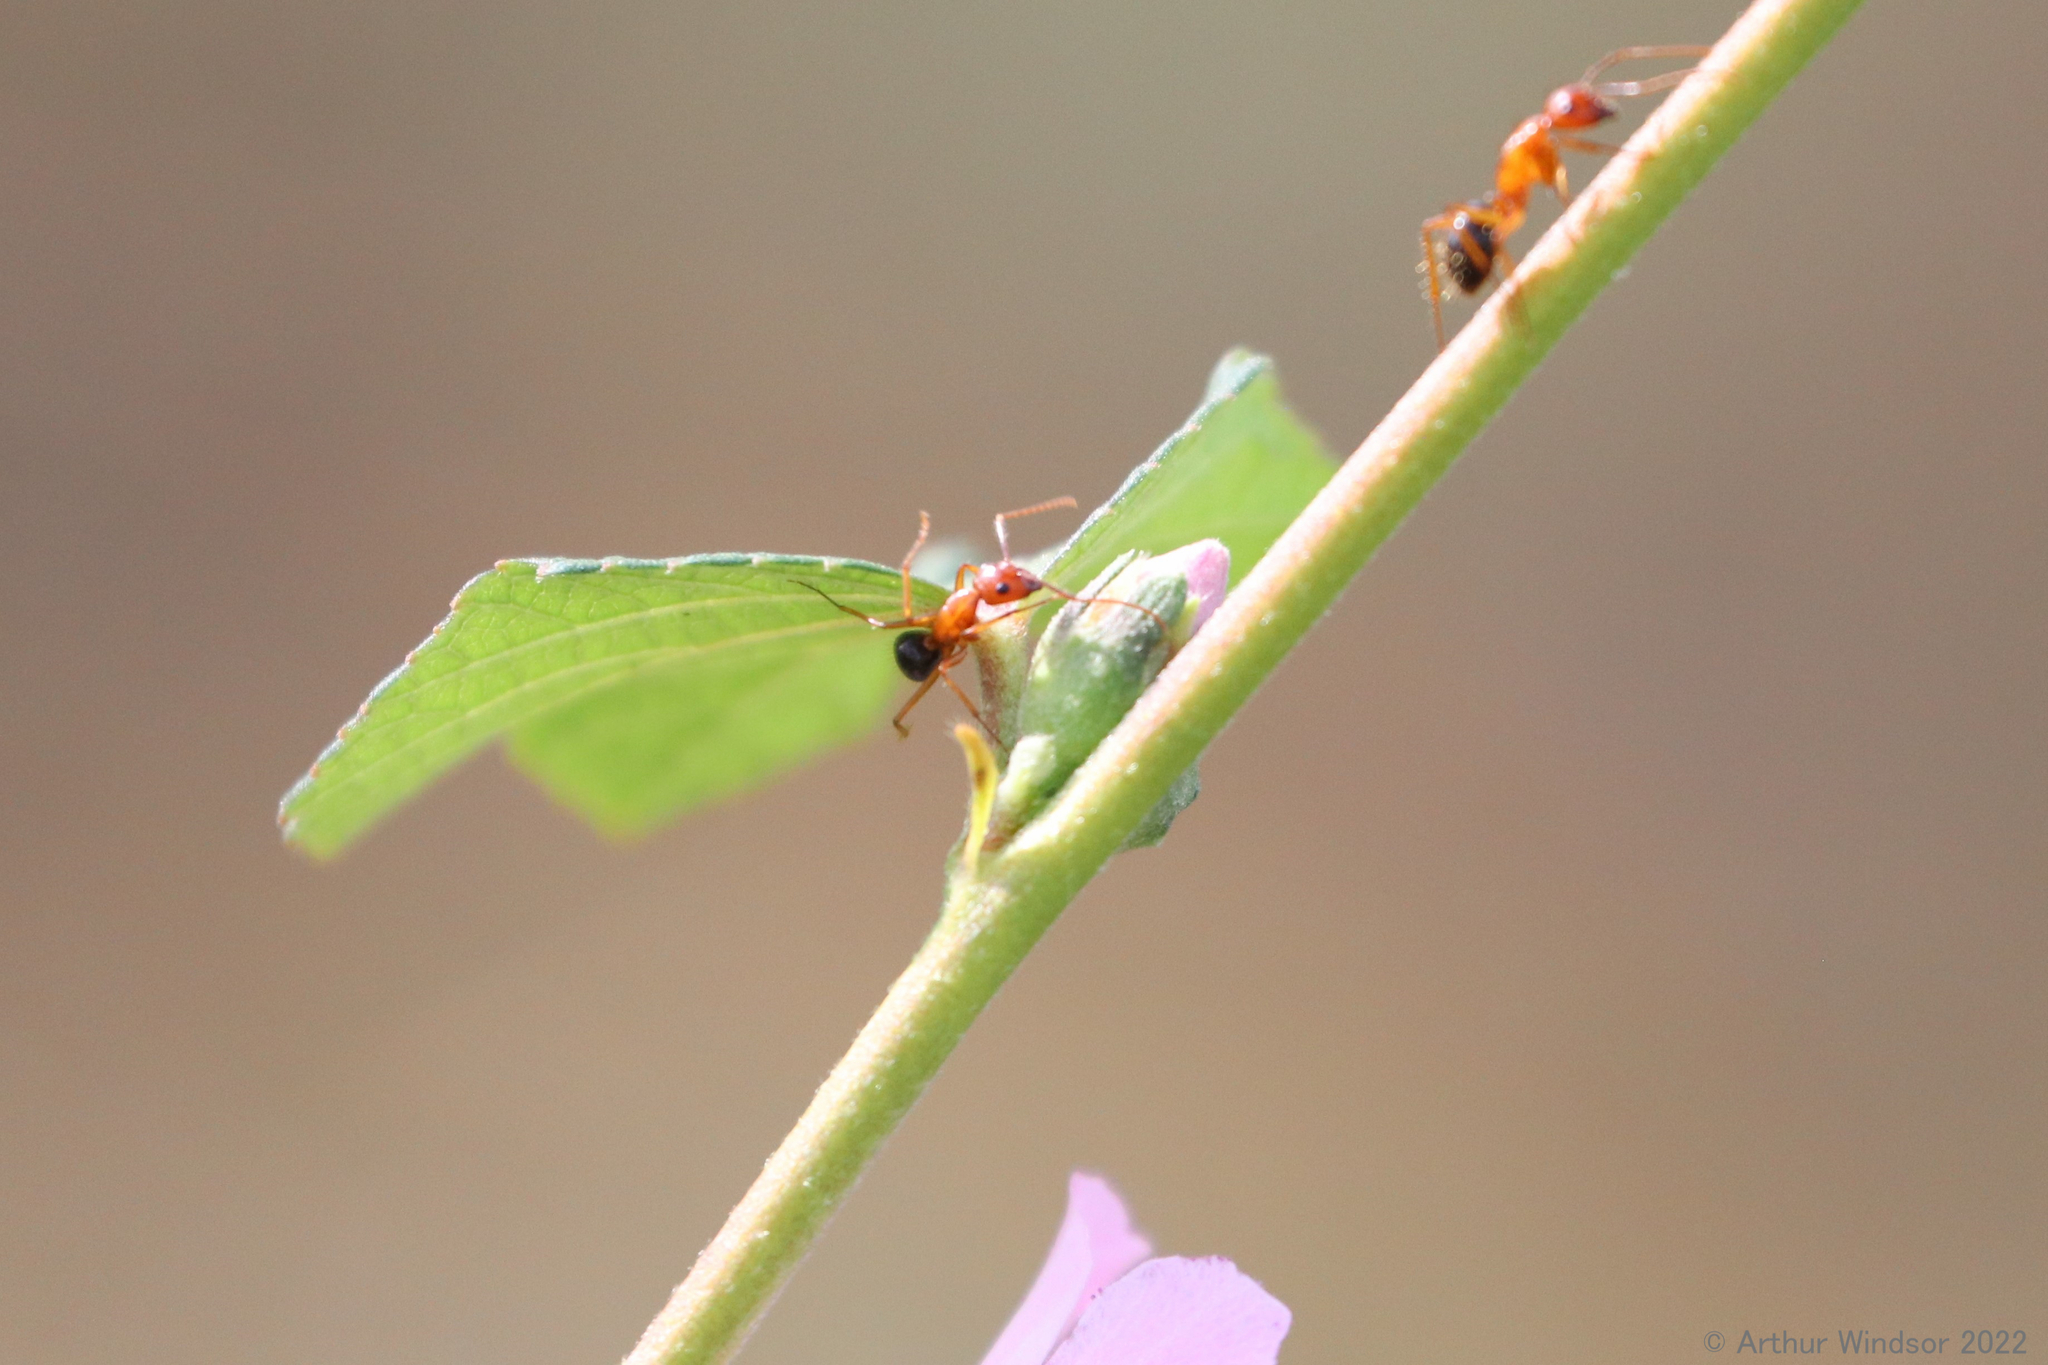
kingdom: Animalia
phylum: Arthropoda
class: Insecta
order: Hymenoptera
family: Formicidae
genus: Camponotus
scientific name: Camponotus floridanus
